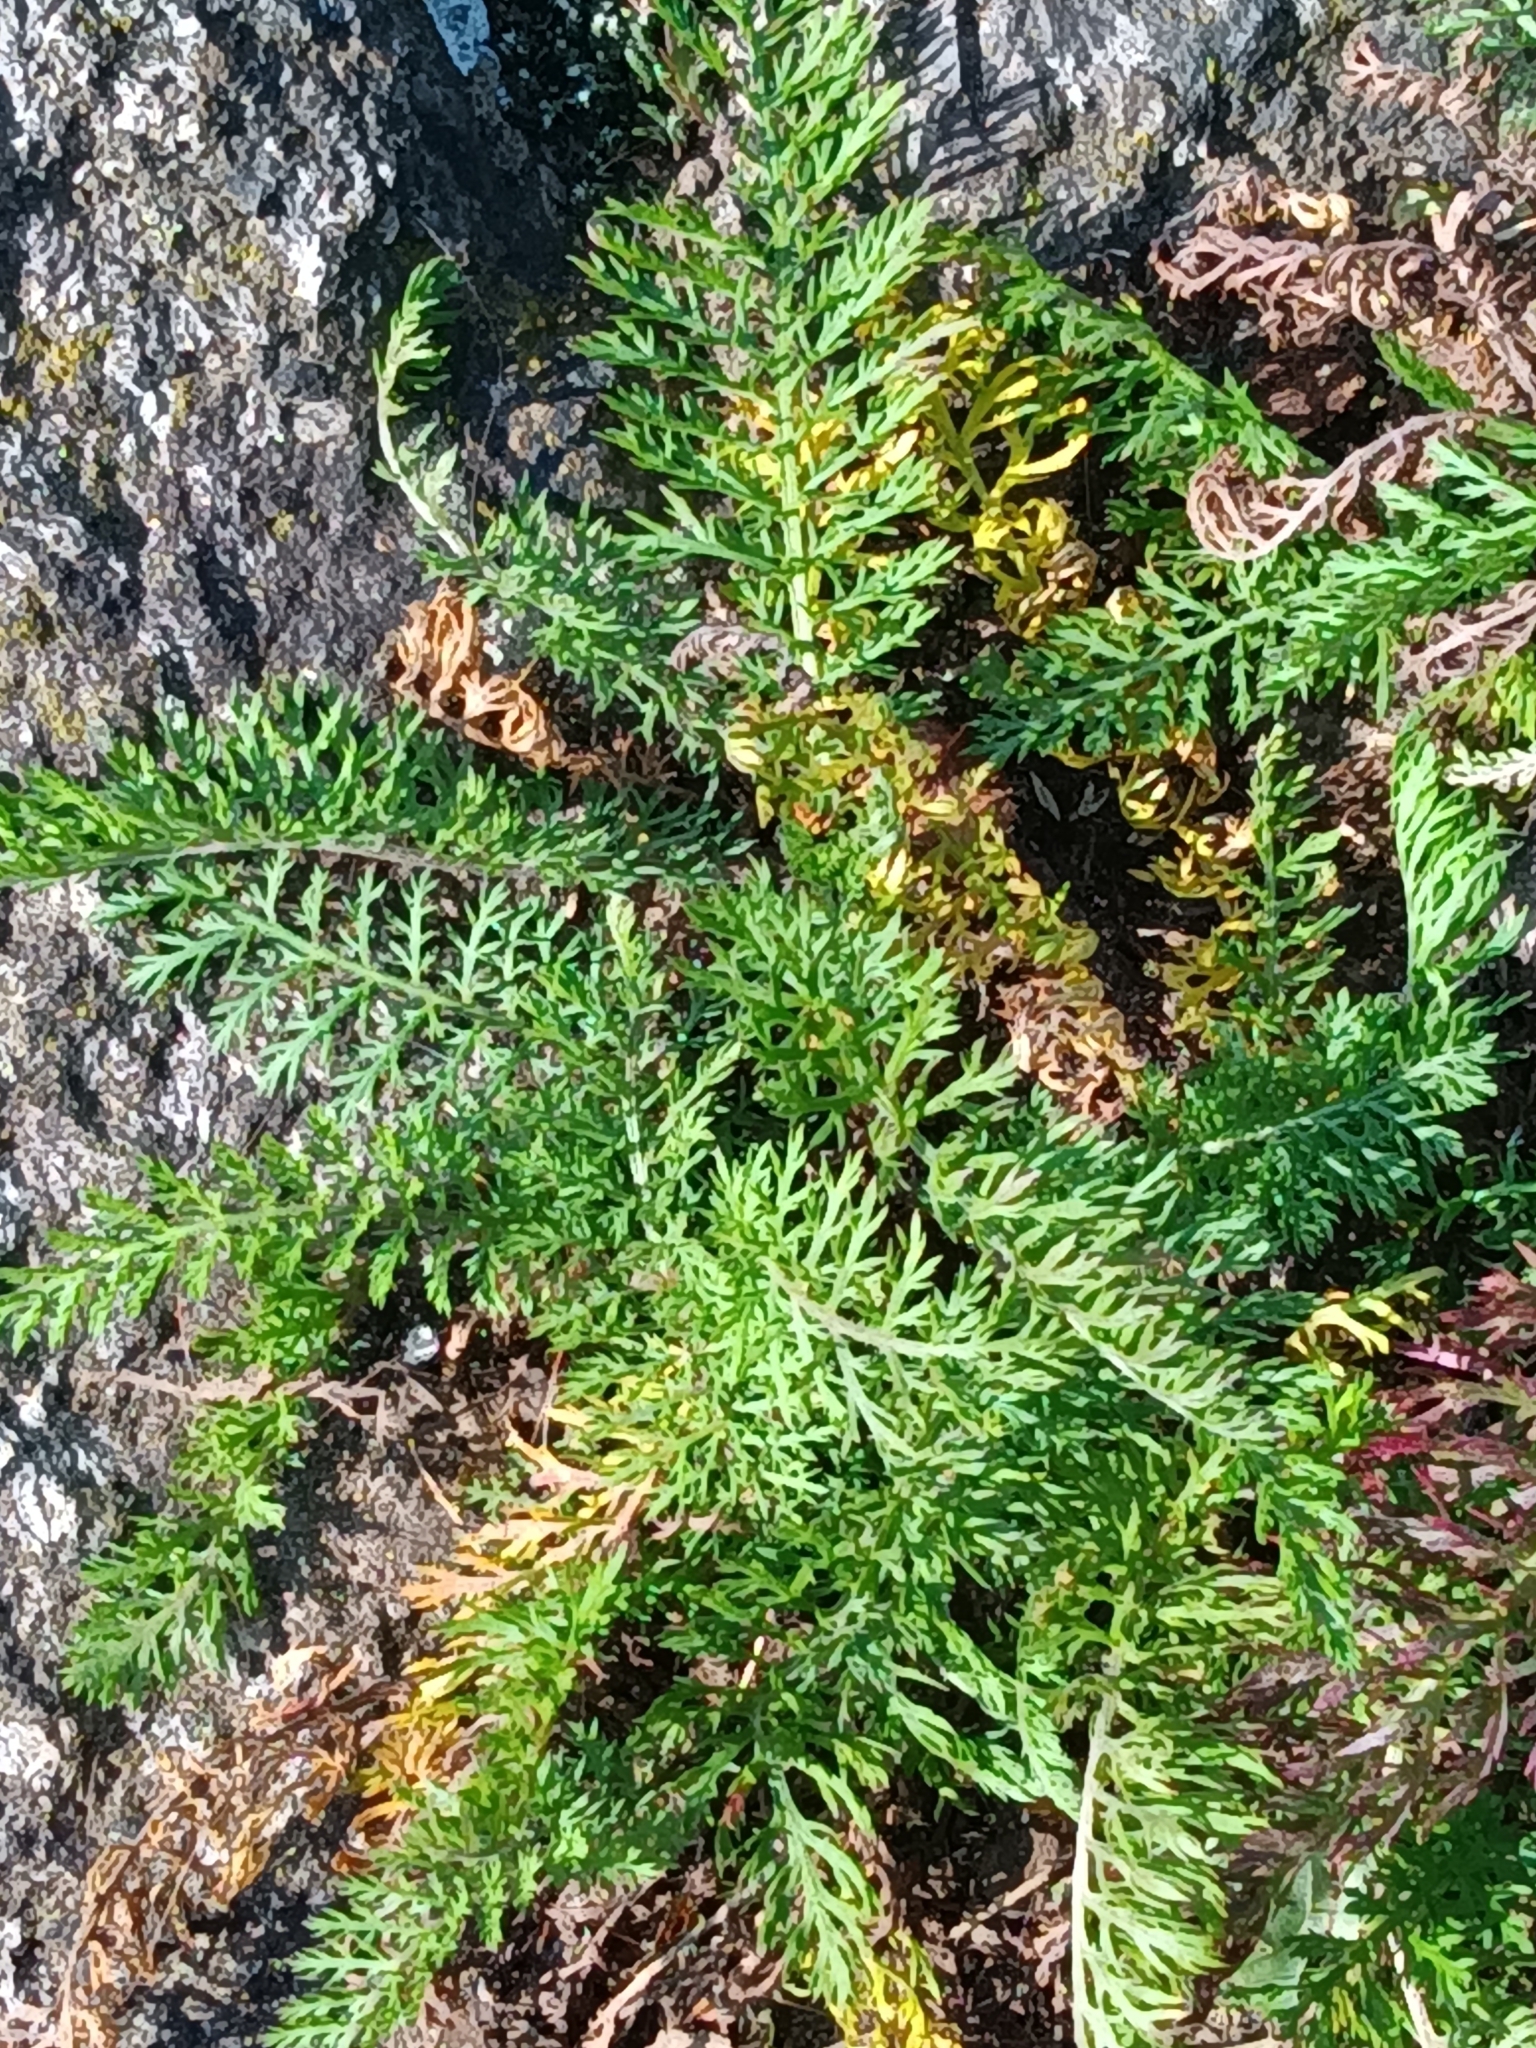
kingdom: Plantae
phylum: Tracheophyta
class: Magnoliopsida
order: Asterales
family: Asteraceae
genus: Achillea
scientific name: Achillea millefolium
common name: Yarrow
